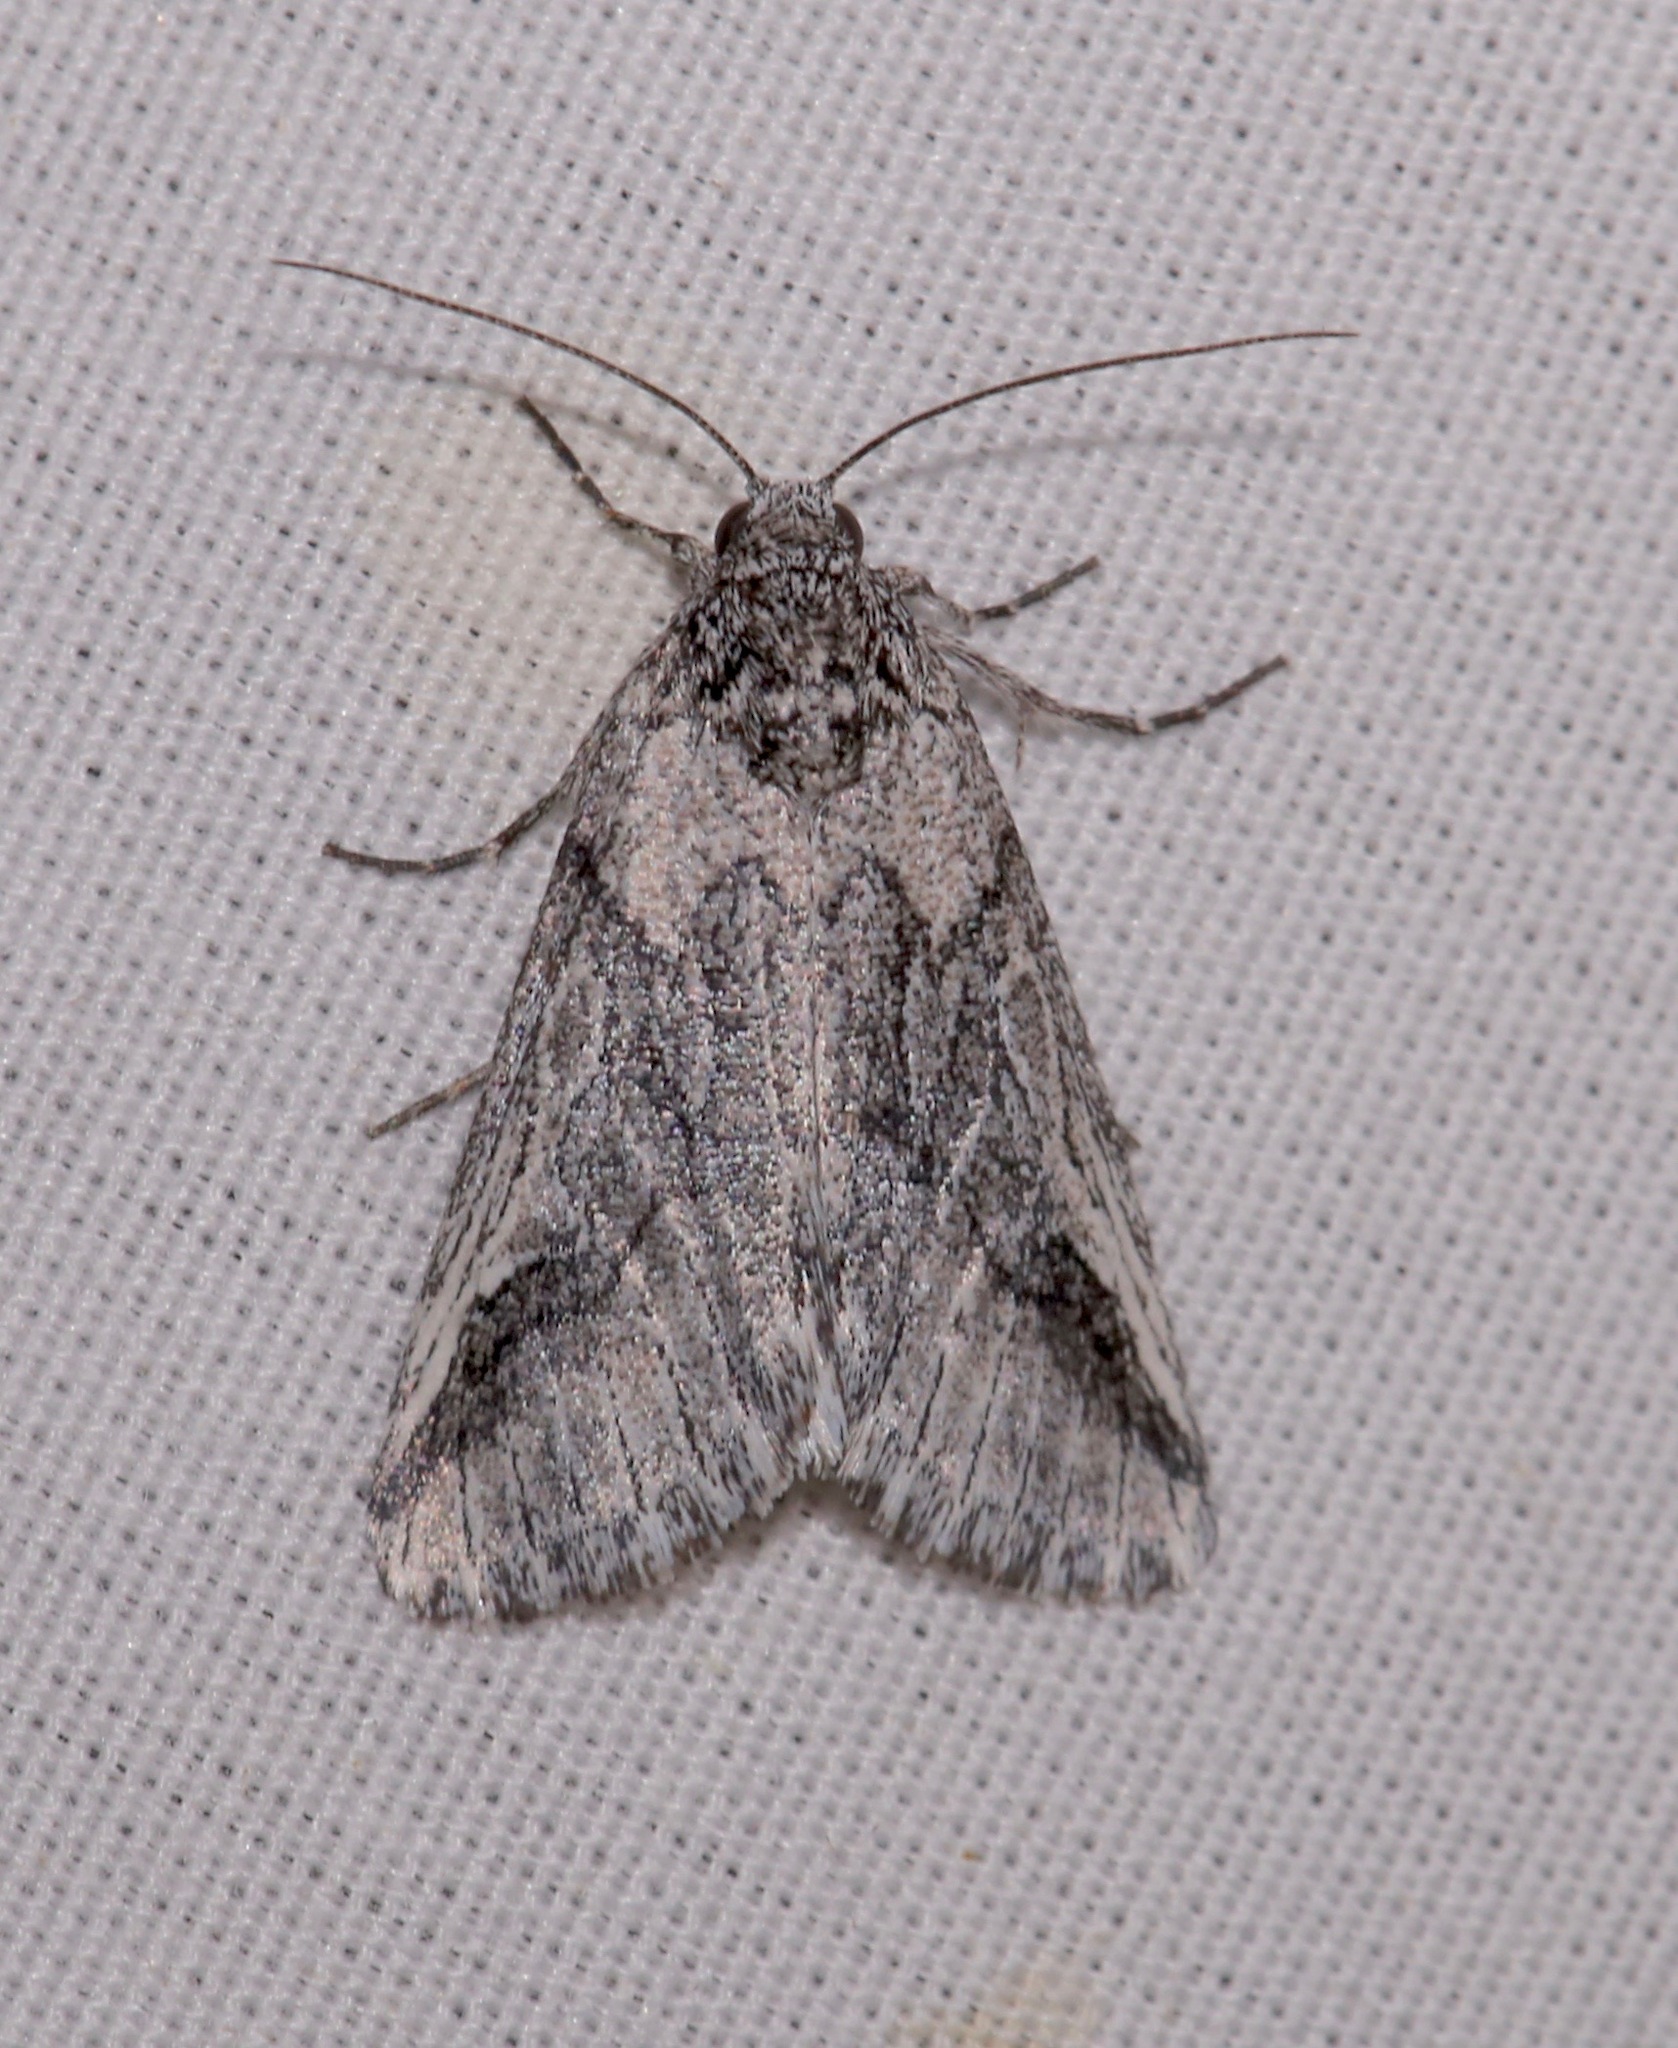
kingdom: Animalia
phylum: Arthropoda
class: Insecta
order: Lepidoptera
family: Noctuidae
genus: Oxycnemis
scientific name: Oxycnemis fusimacula
